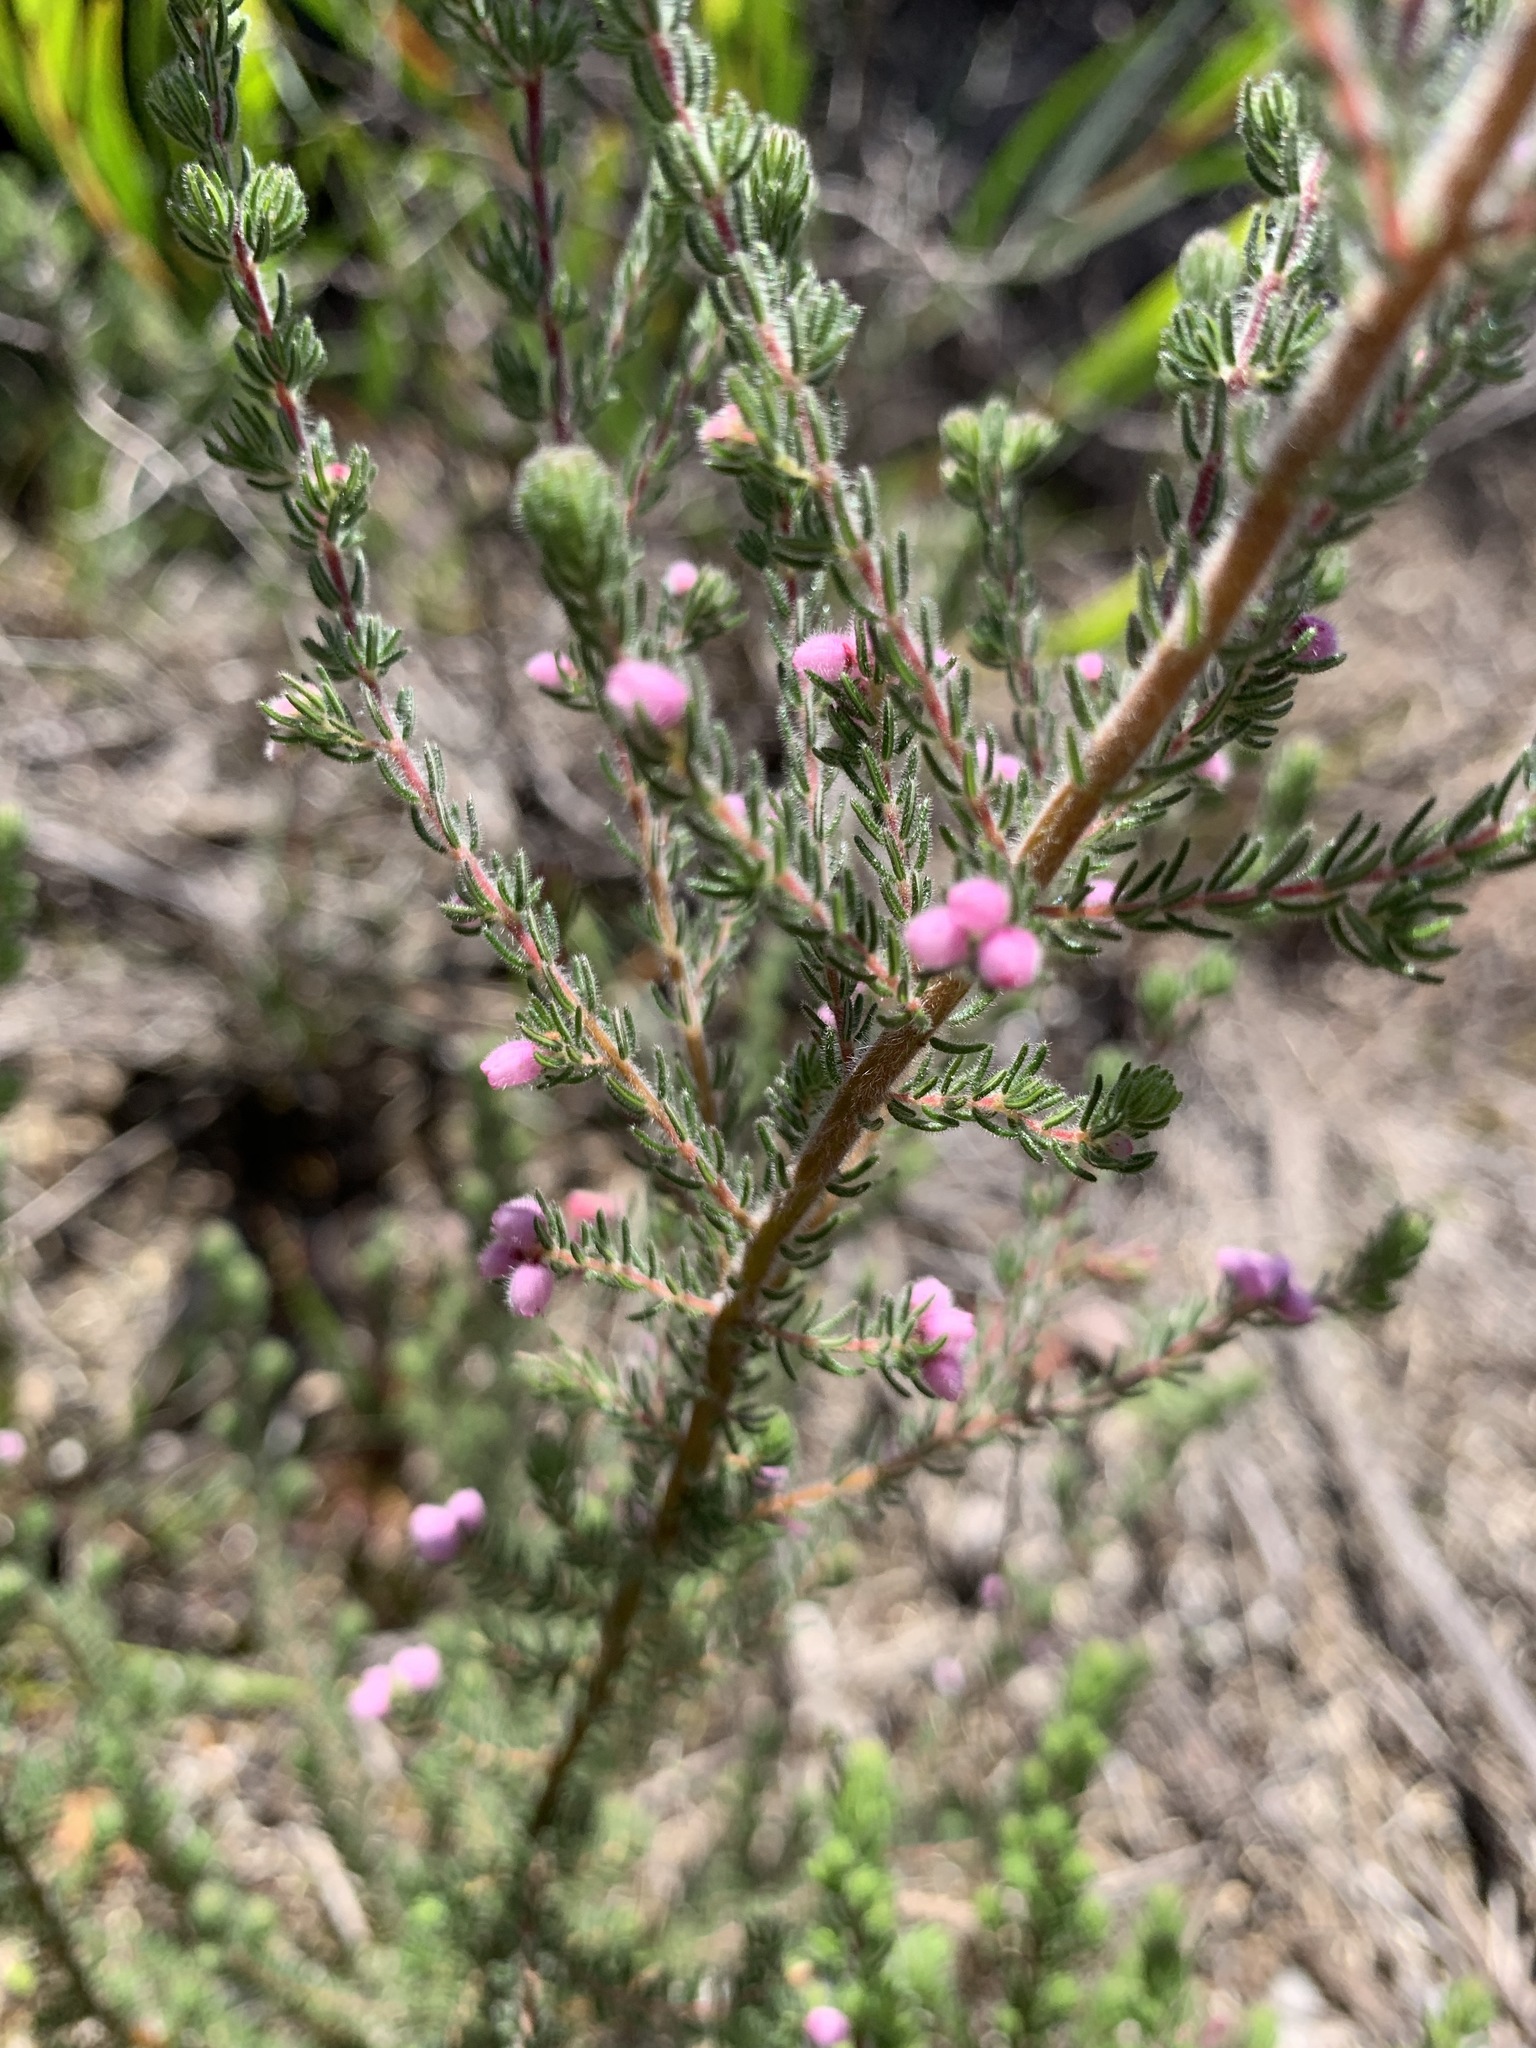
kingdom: Plantae
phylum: Tracheophyta
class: Magnoliopsida
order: Ericales
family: Ericaceae
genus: Erica
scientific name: Erica hirtiflora
